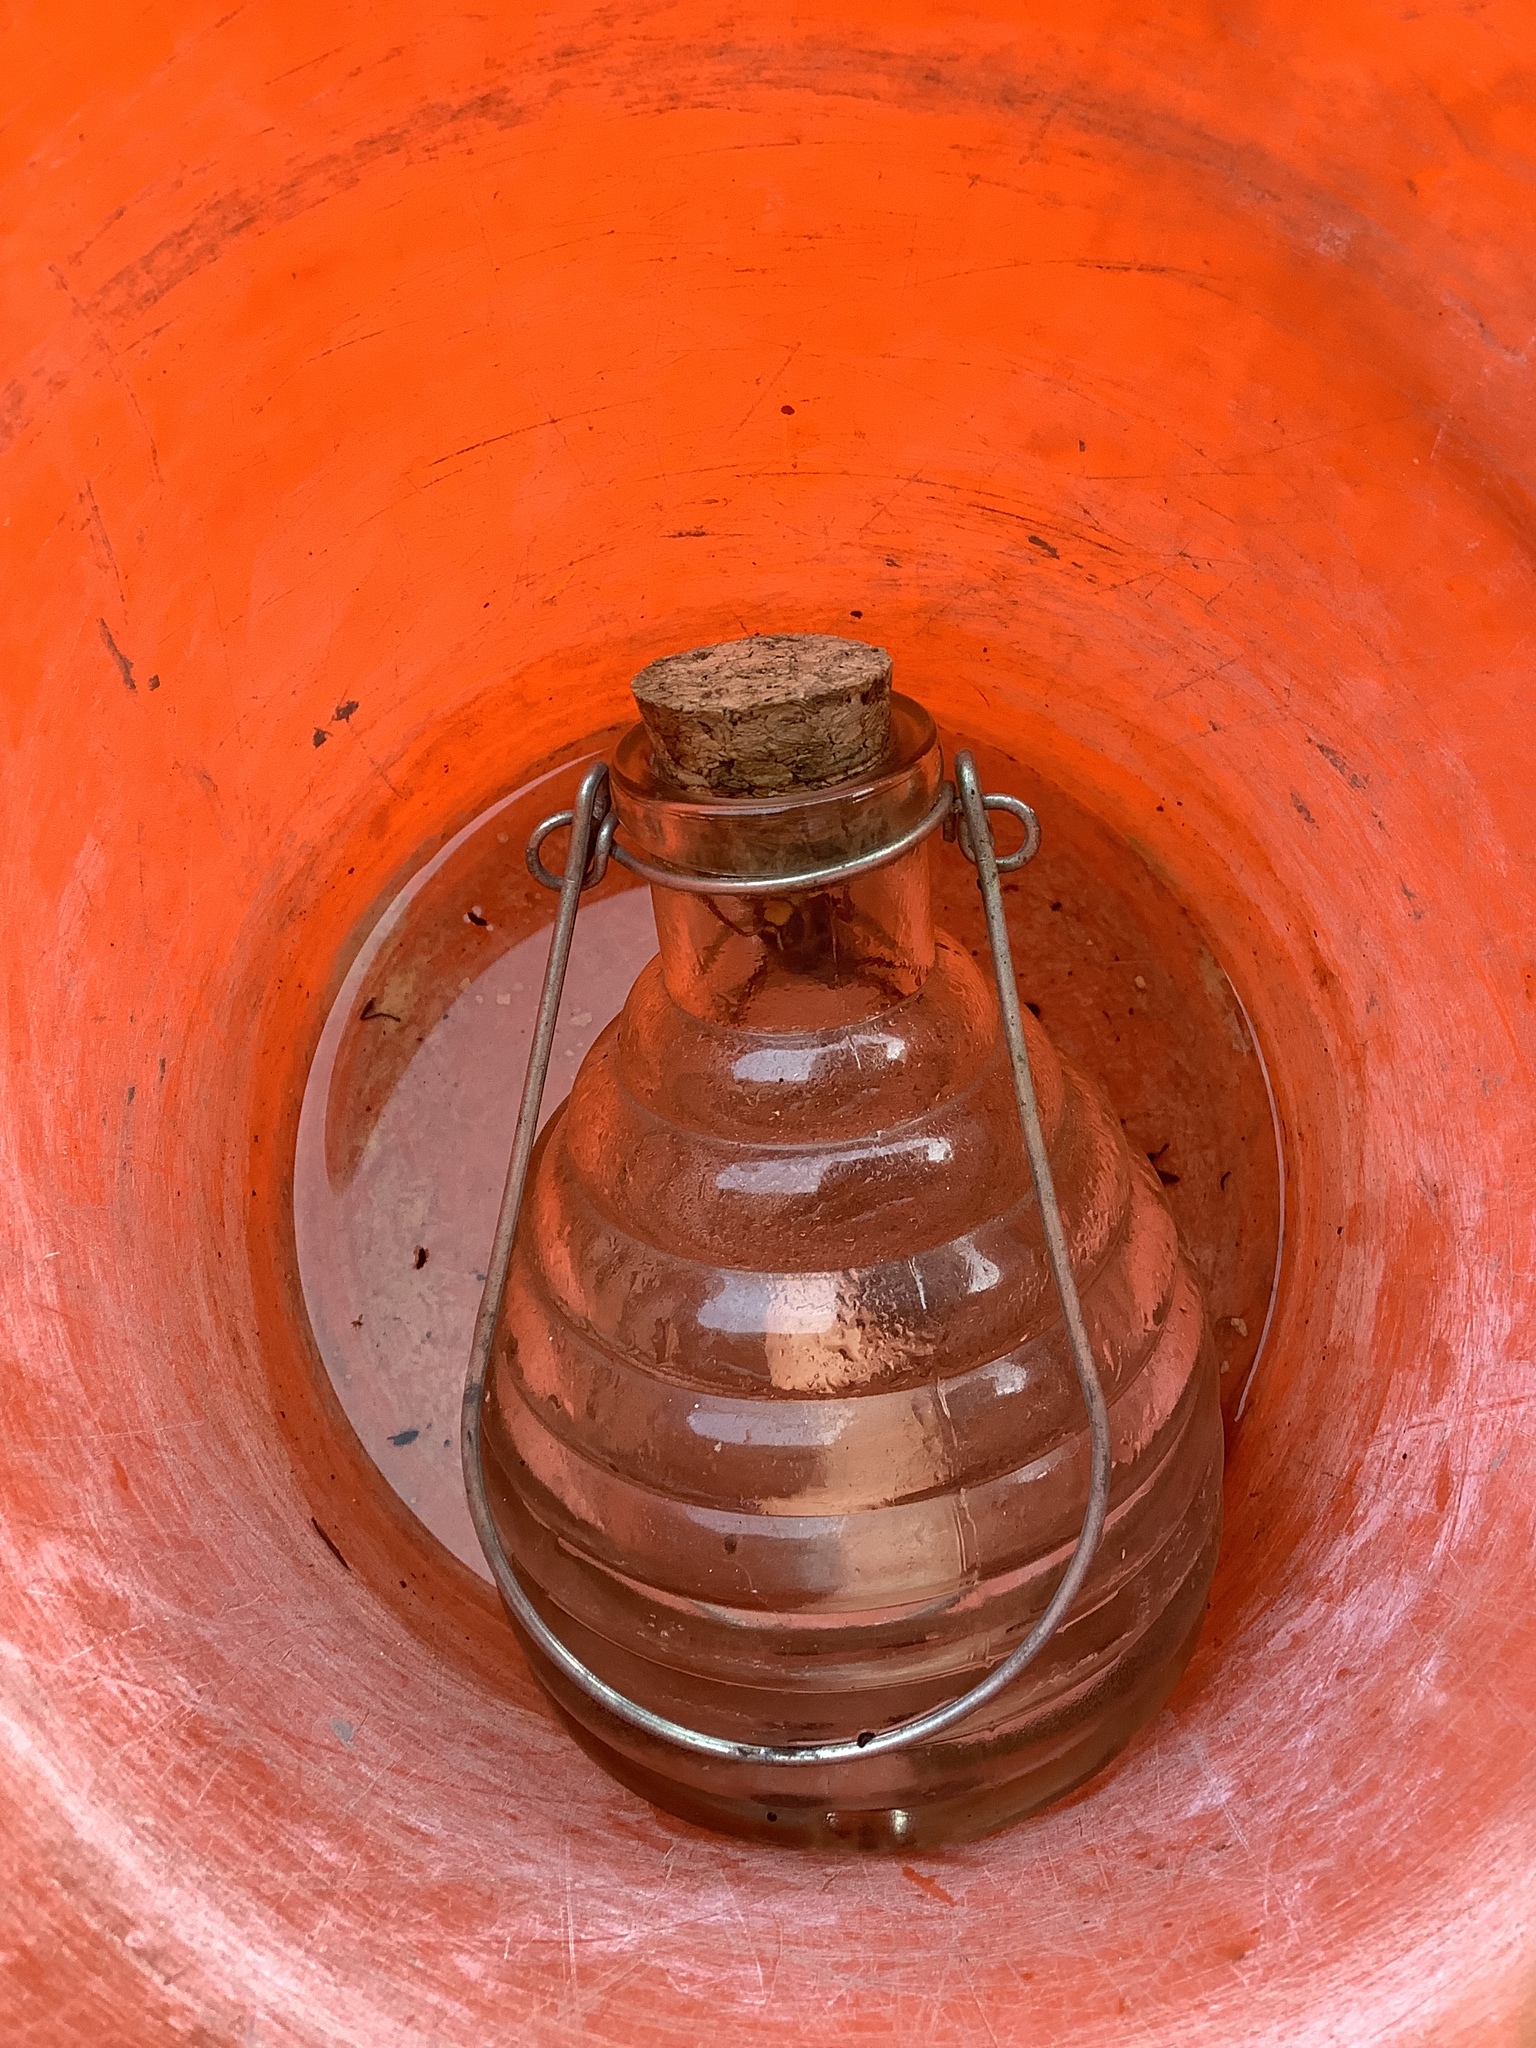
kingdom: Animalia
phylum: Arthropoda
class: Insecta
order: Hymenoptera
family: Vespidae
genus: Vespa
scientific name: Vespa crabro
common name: Hornet
